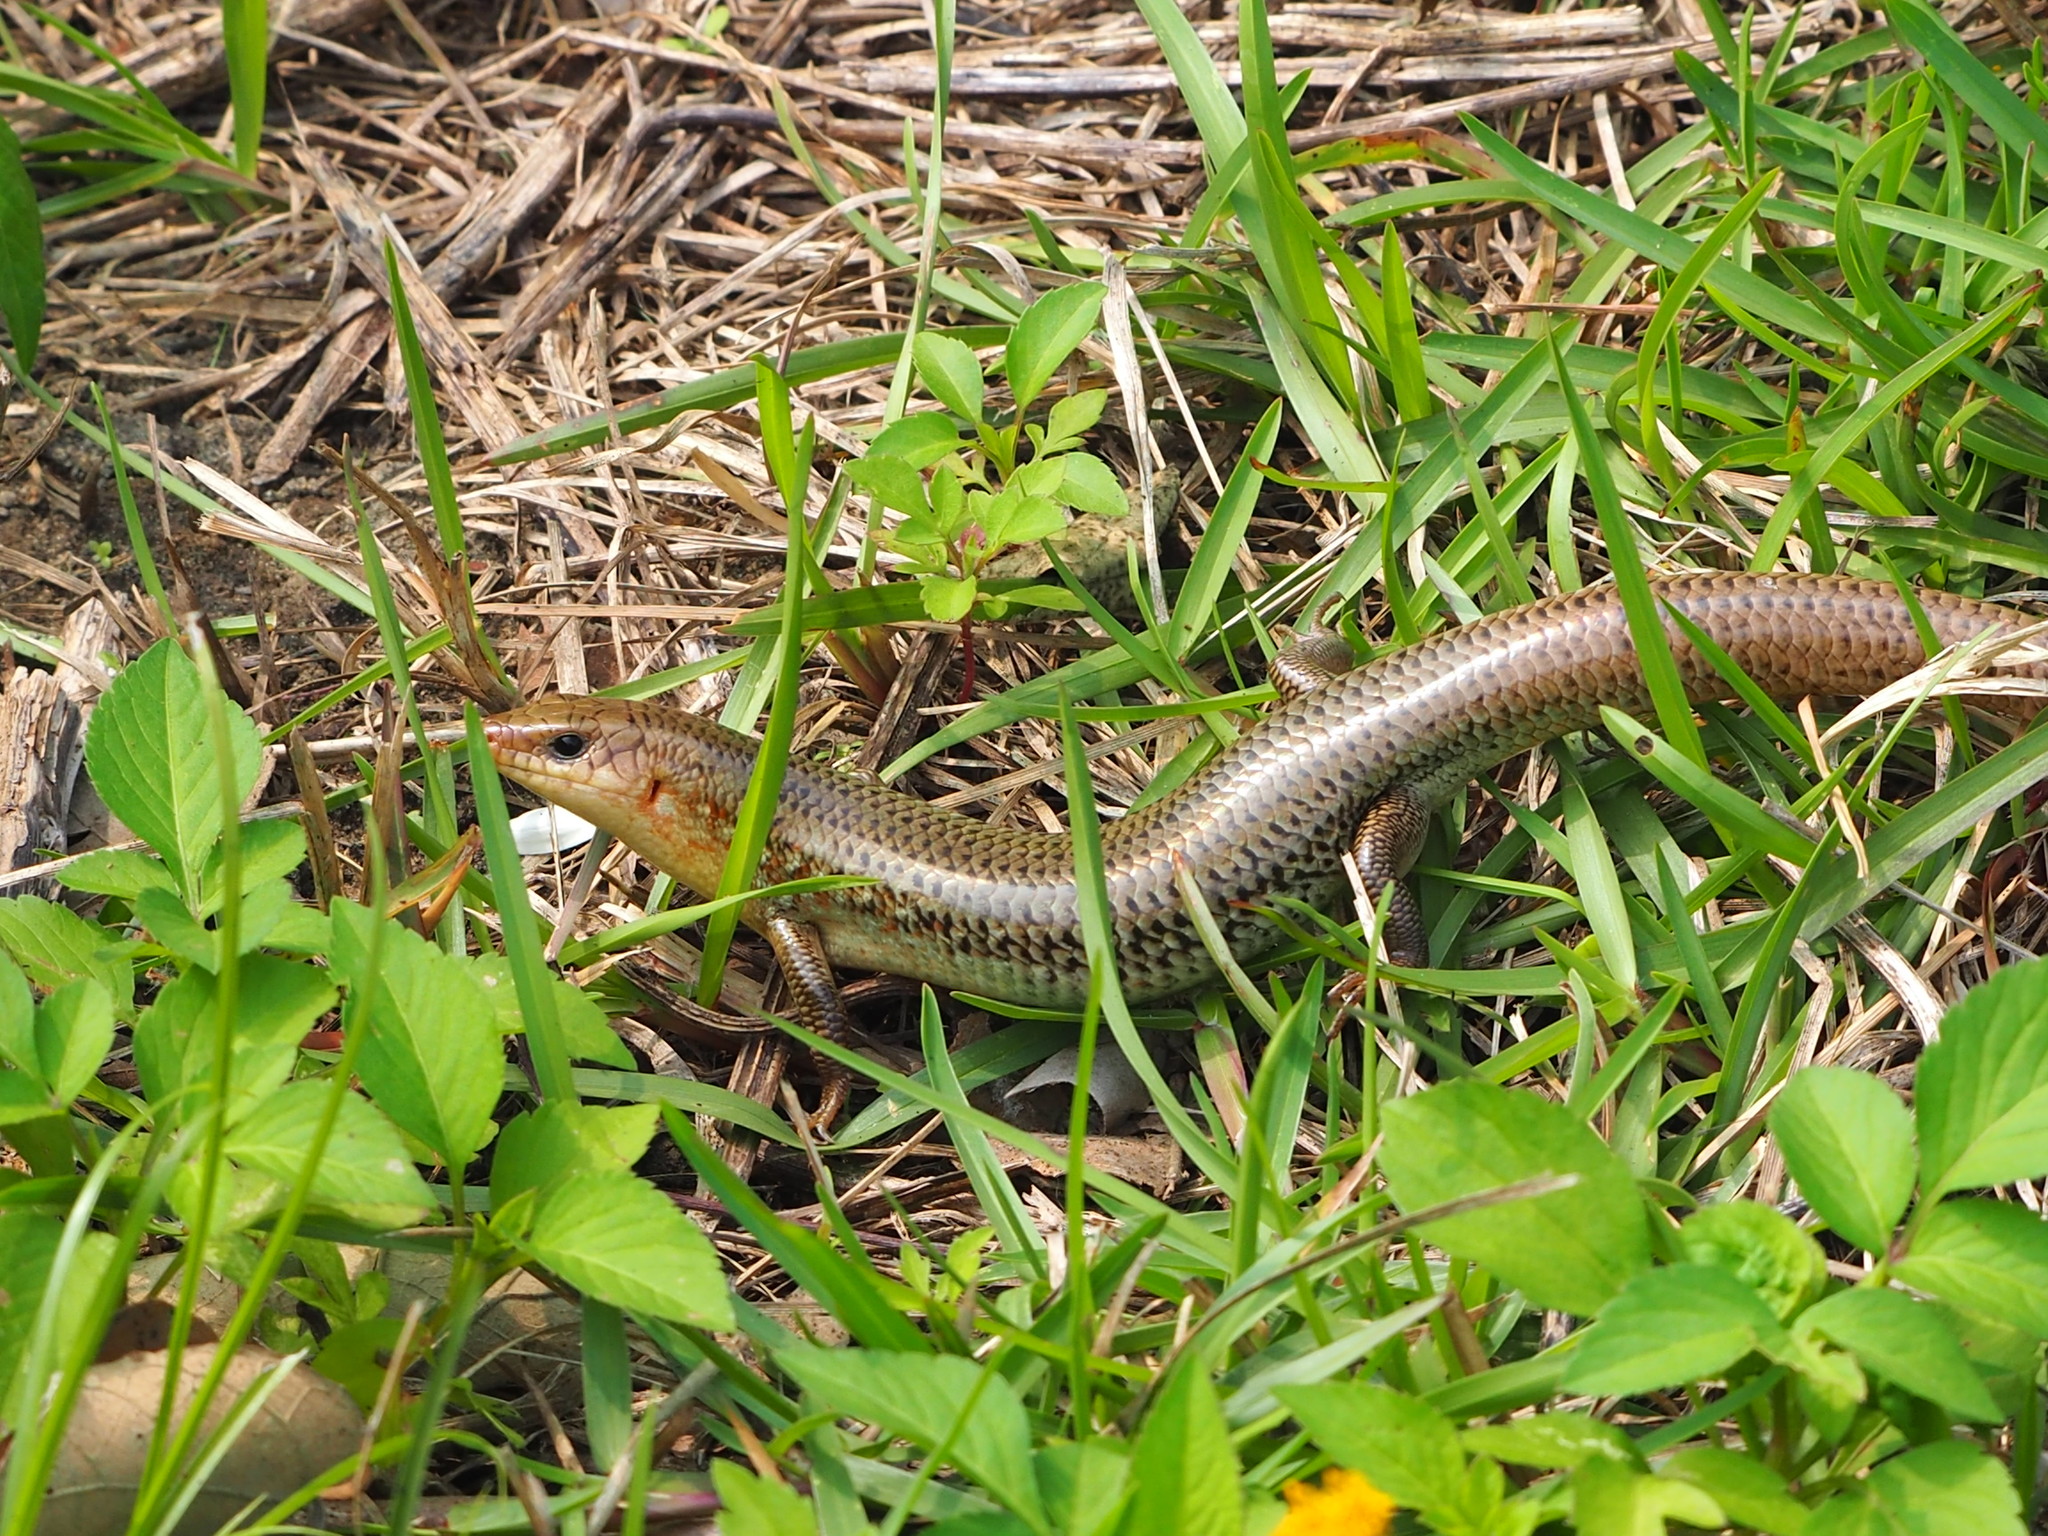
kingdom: Animalia
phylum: Chordata
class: Squamata
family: Scincidae
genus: Plestiodon
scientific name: Plestiodon chinensis
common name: Chinese blue-tailed skink
